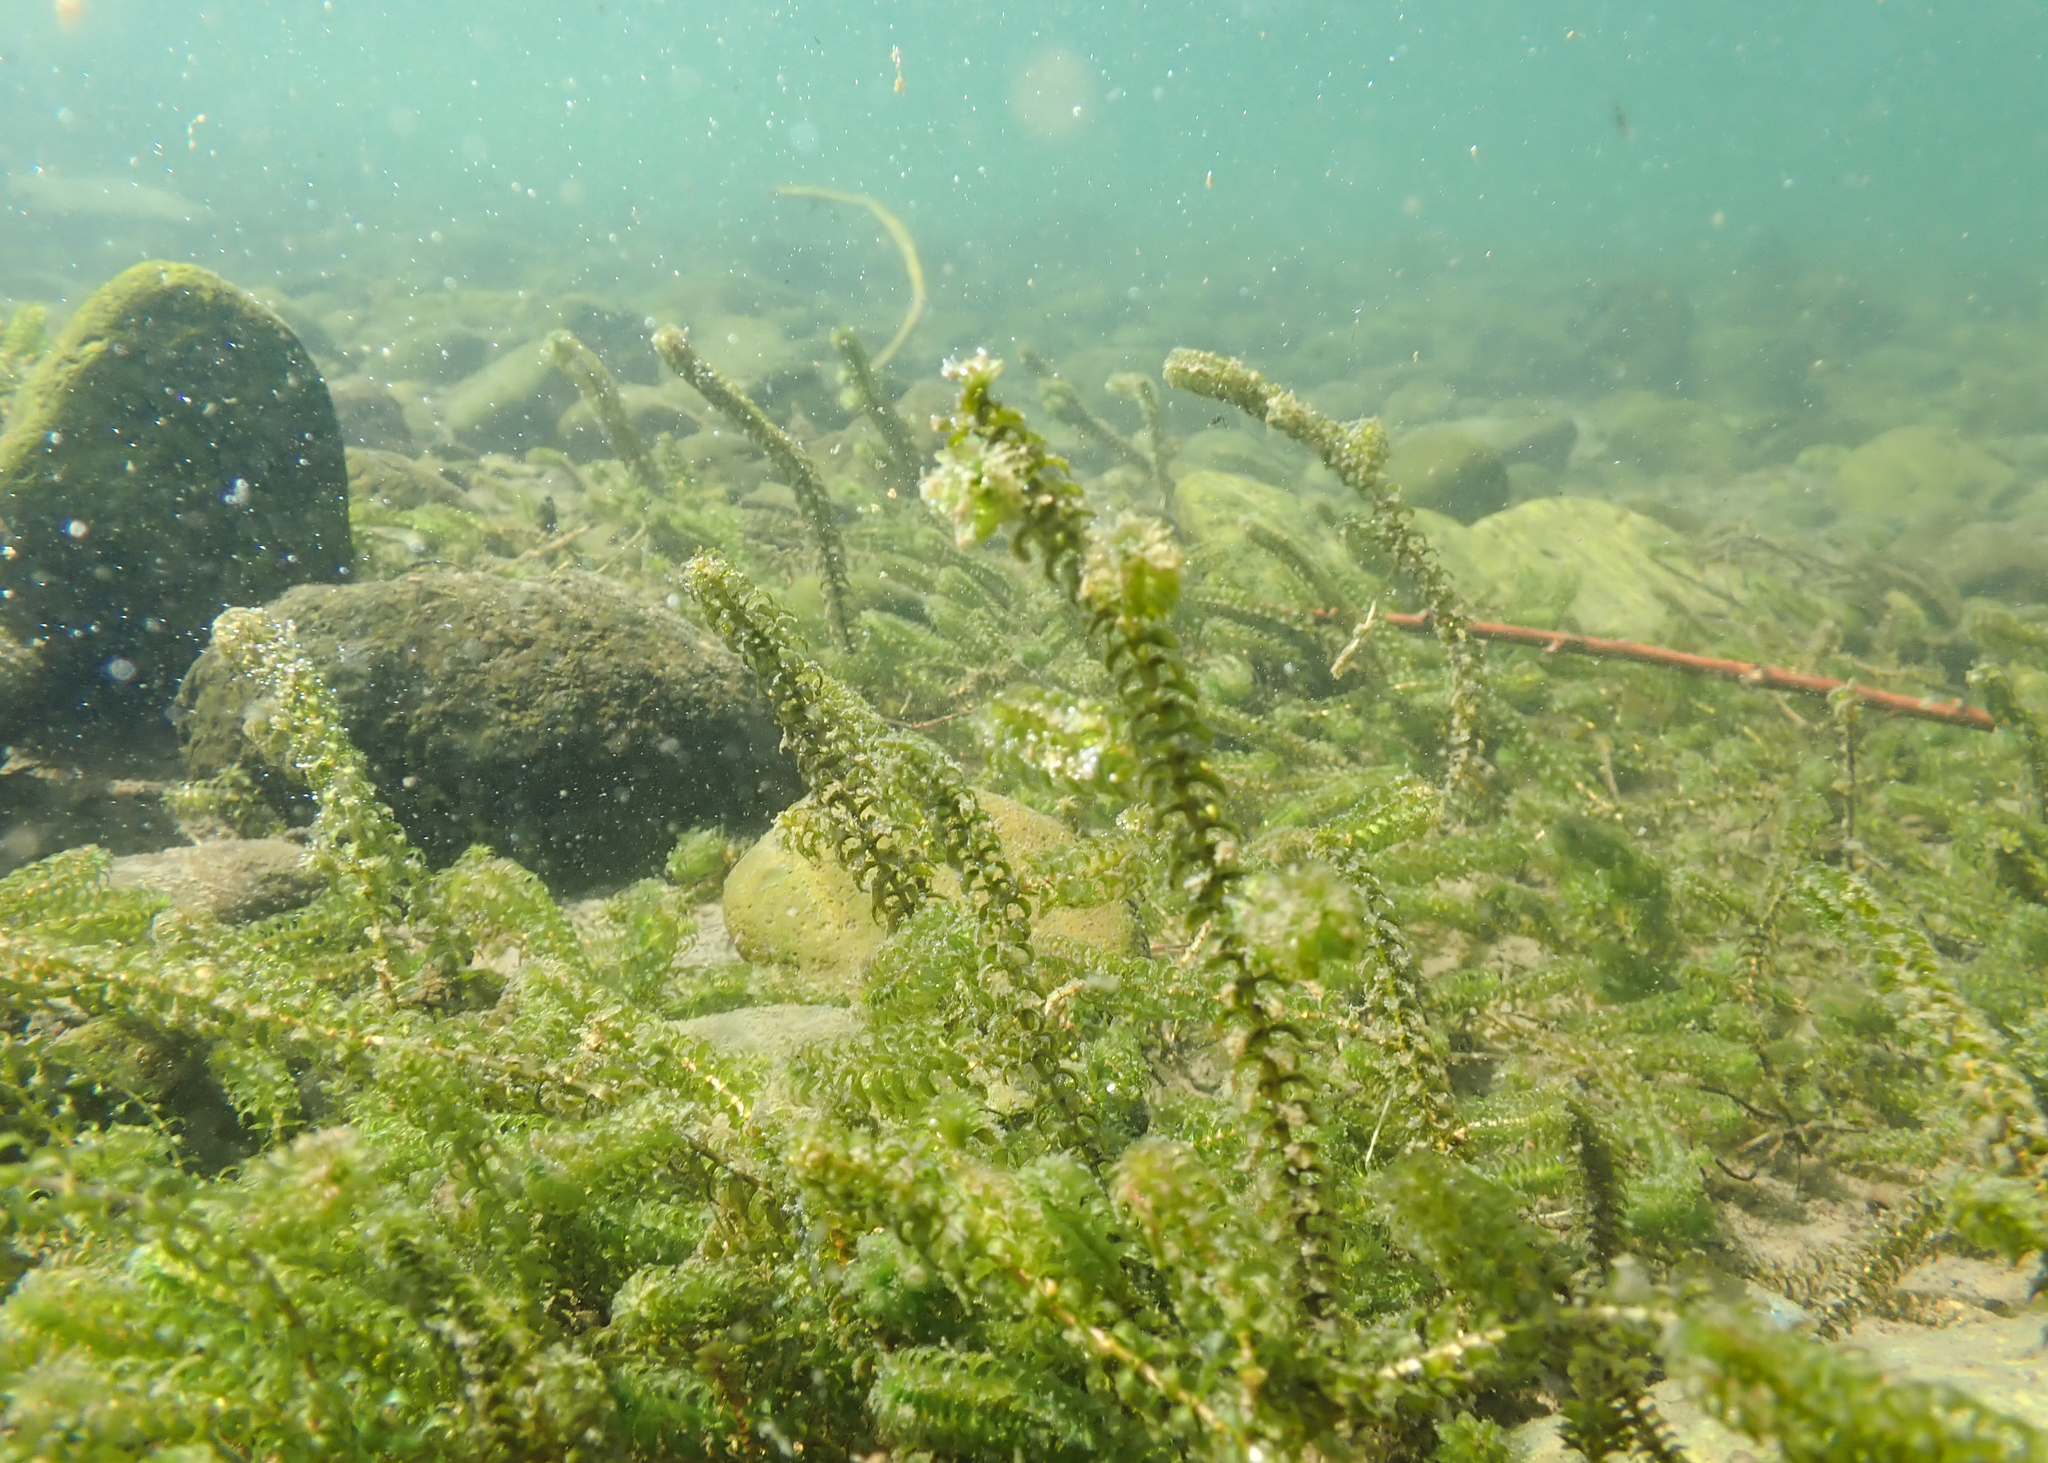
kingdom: Plantae
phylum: Tracheophyta
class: Liliopsida
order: Alismatales
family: Hydrocharitaceae
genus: Elodea
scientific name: Elodea canadensis
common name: Canadian waterweed
